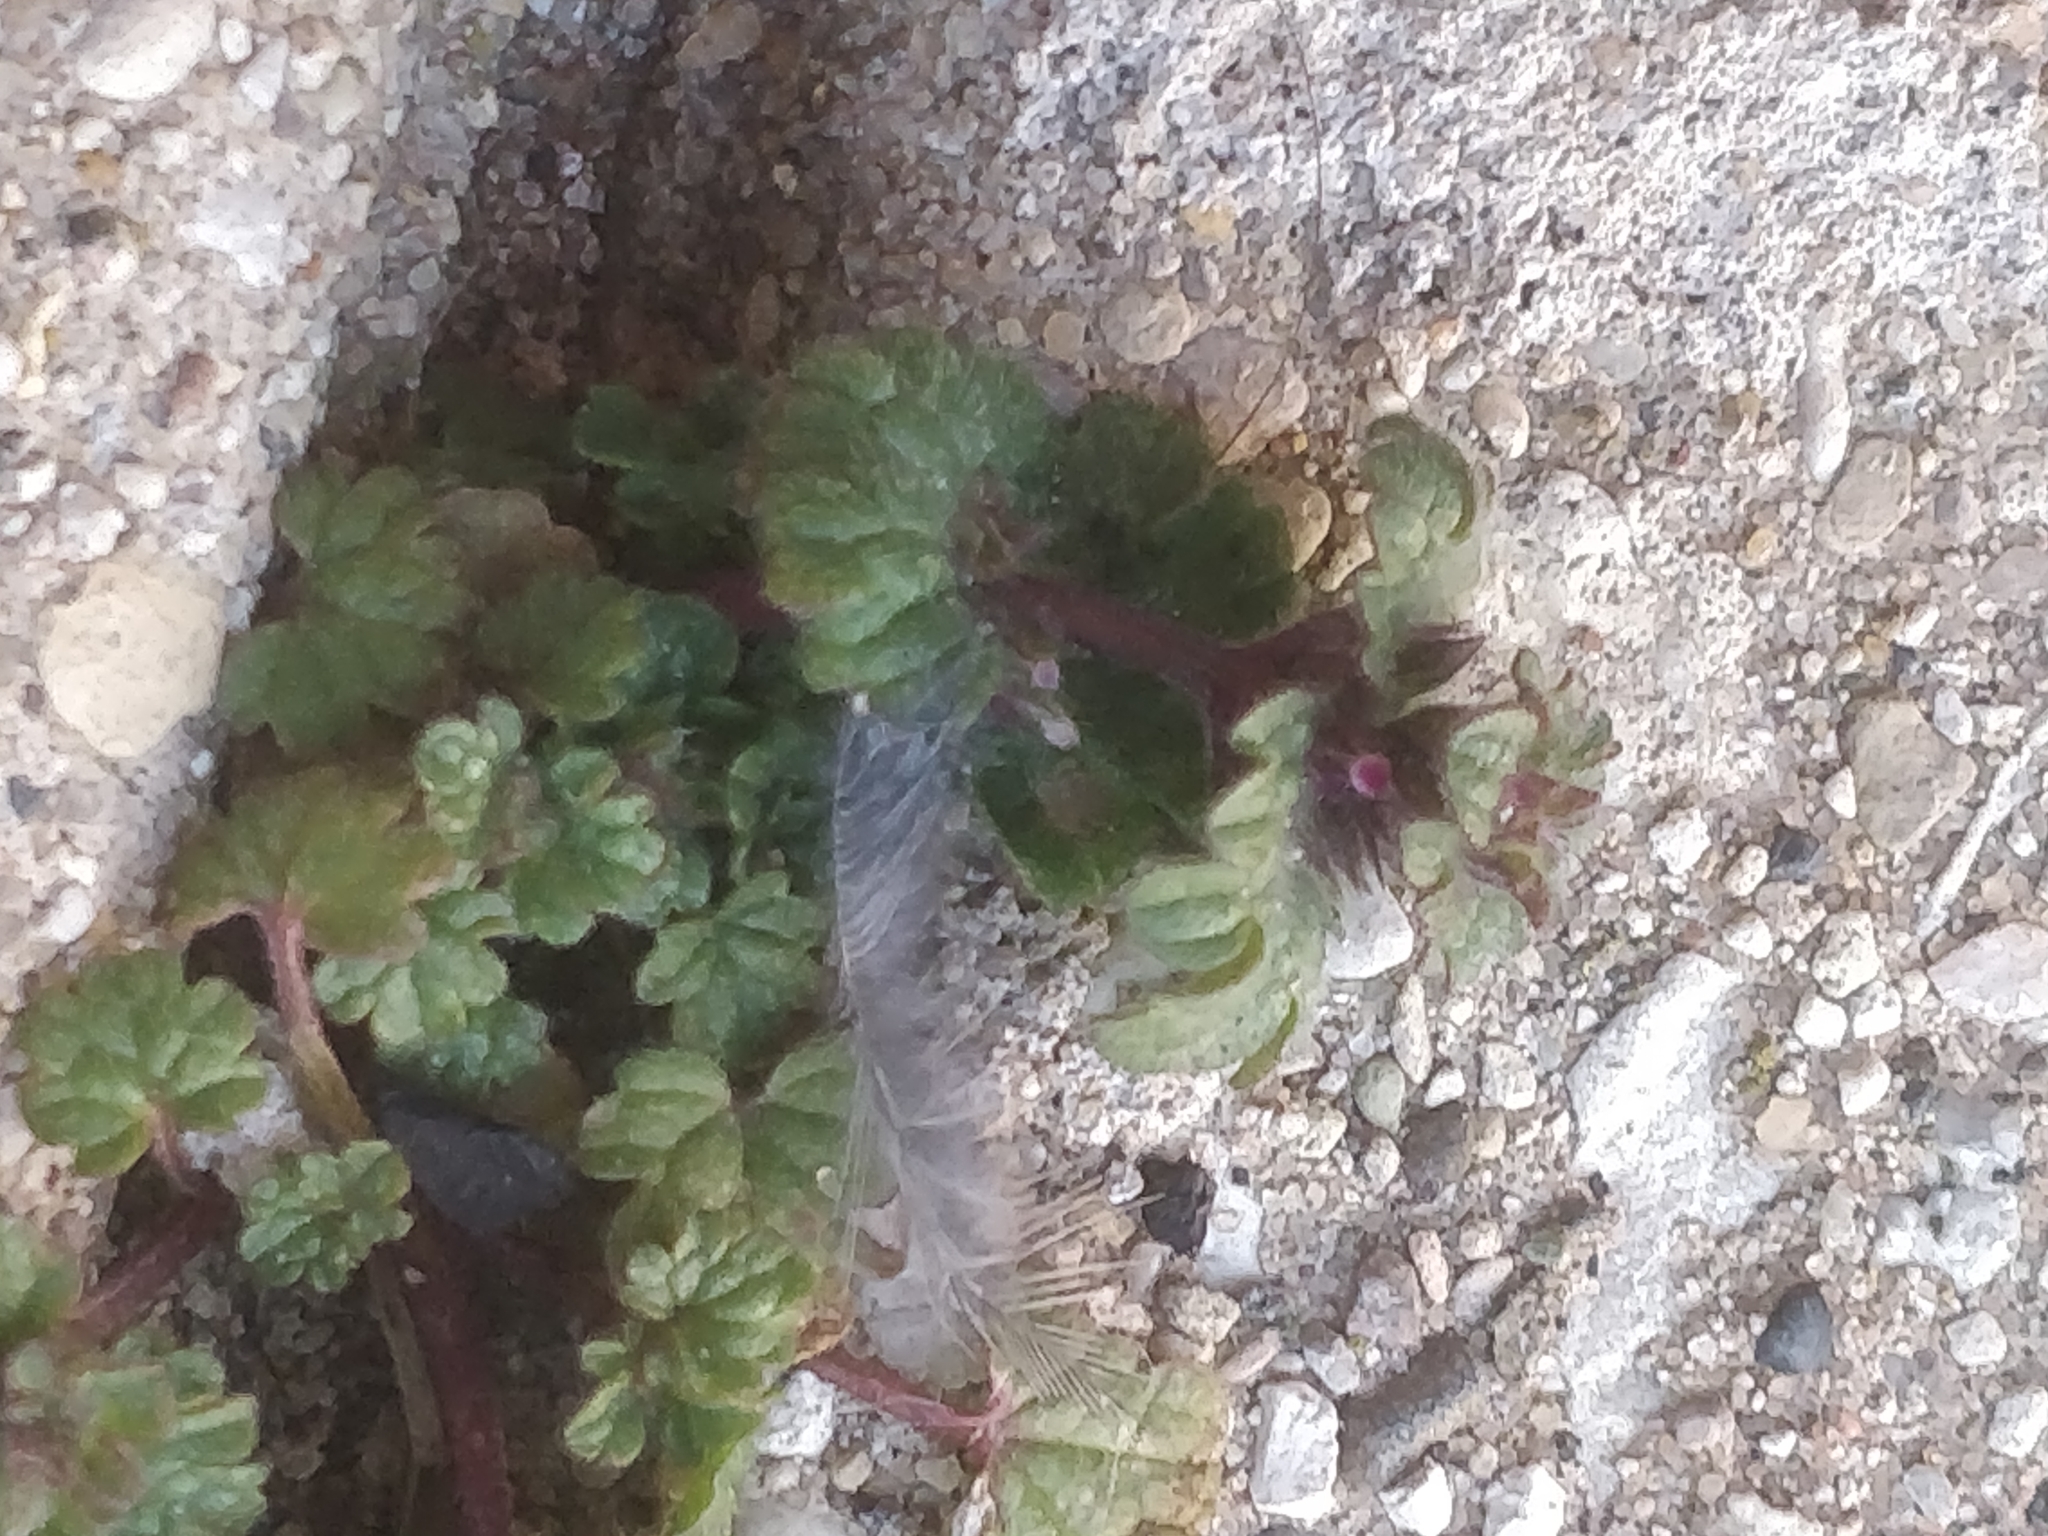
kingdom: Plantae
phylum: Tracheophyta
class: Magnoliopsida
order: Lamiales
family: Lamiaceae
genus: Lamium
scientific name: Lamium amplexicaule
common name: Henbit dead-nettle
